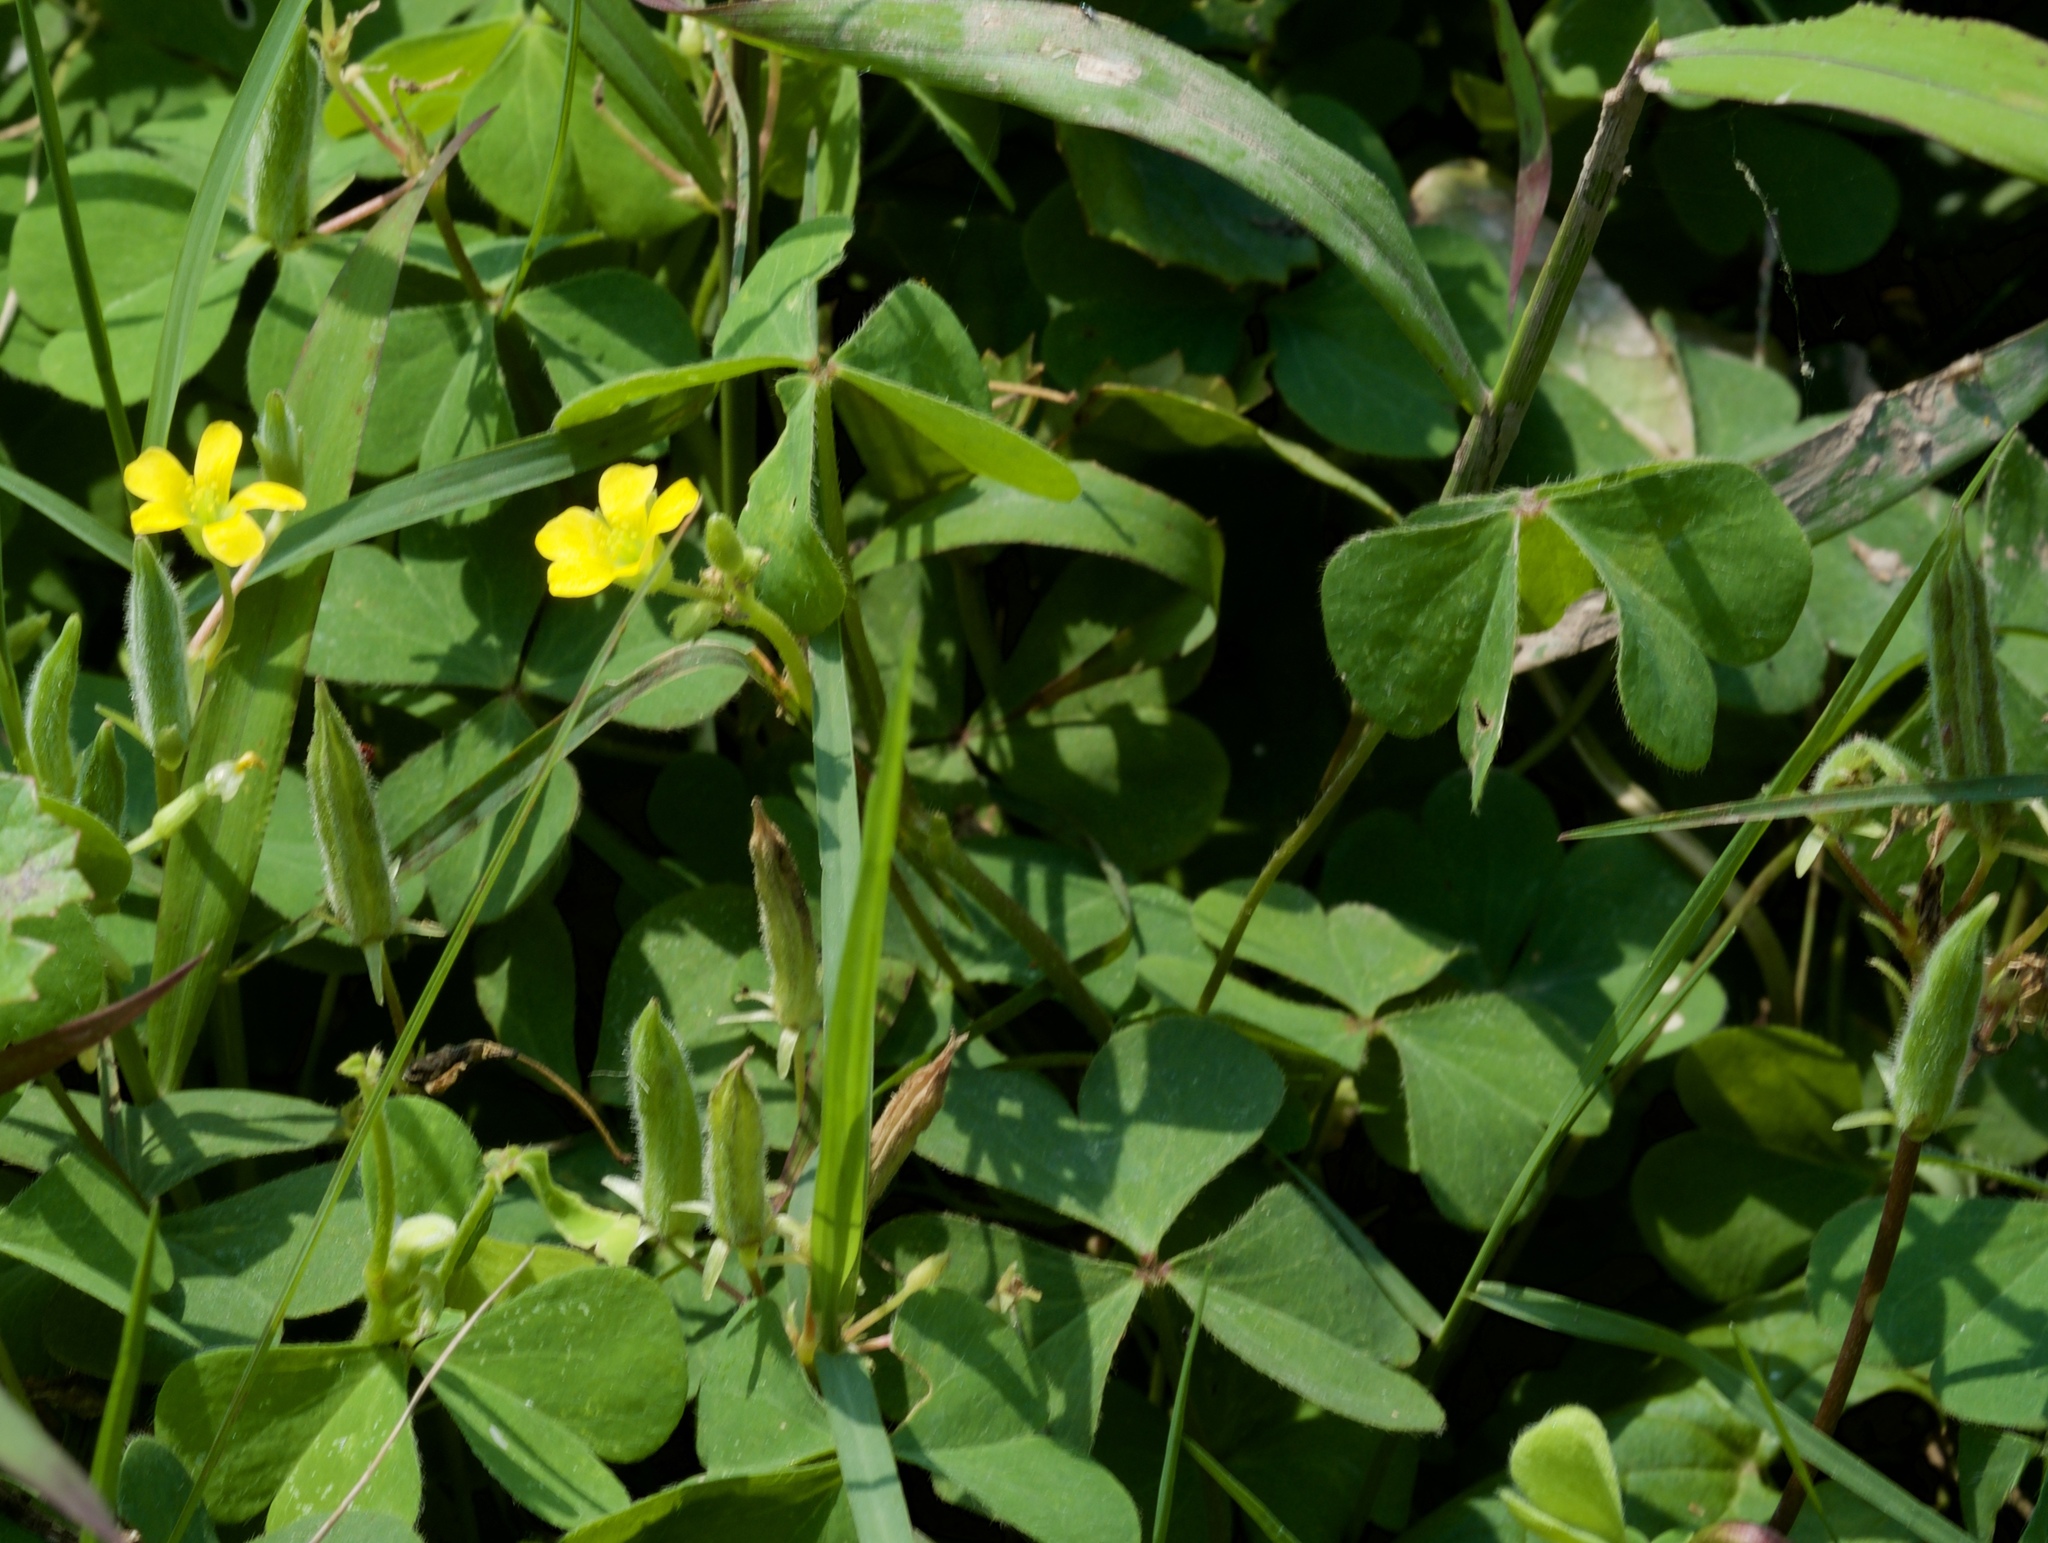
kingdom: Plantae
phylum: Tracheophyta
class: Magnoliopsida
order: Oxalidales
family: Oxalidaceae
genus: Oxalis
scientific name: Oxalis corniculata
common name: Procumbent yellow-sorrel
